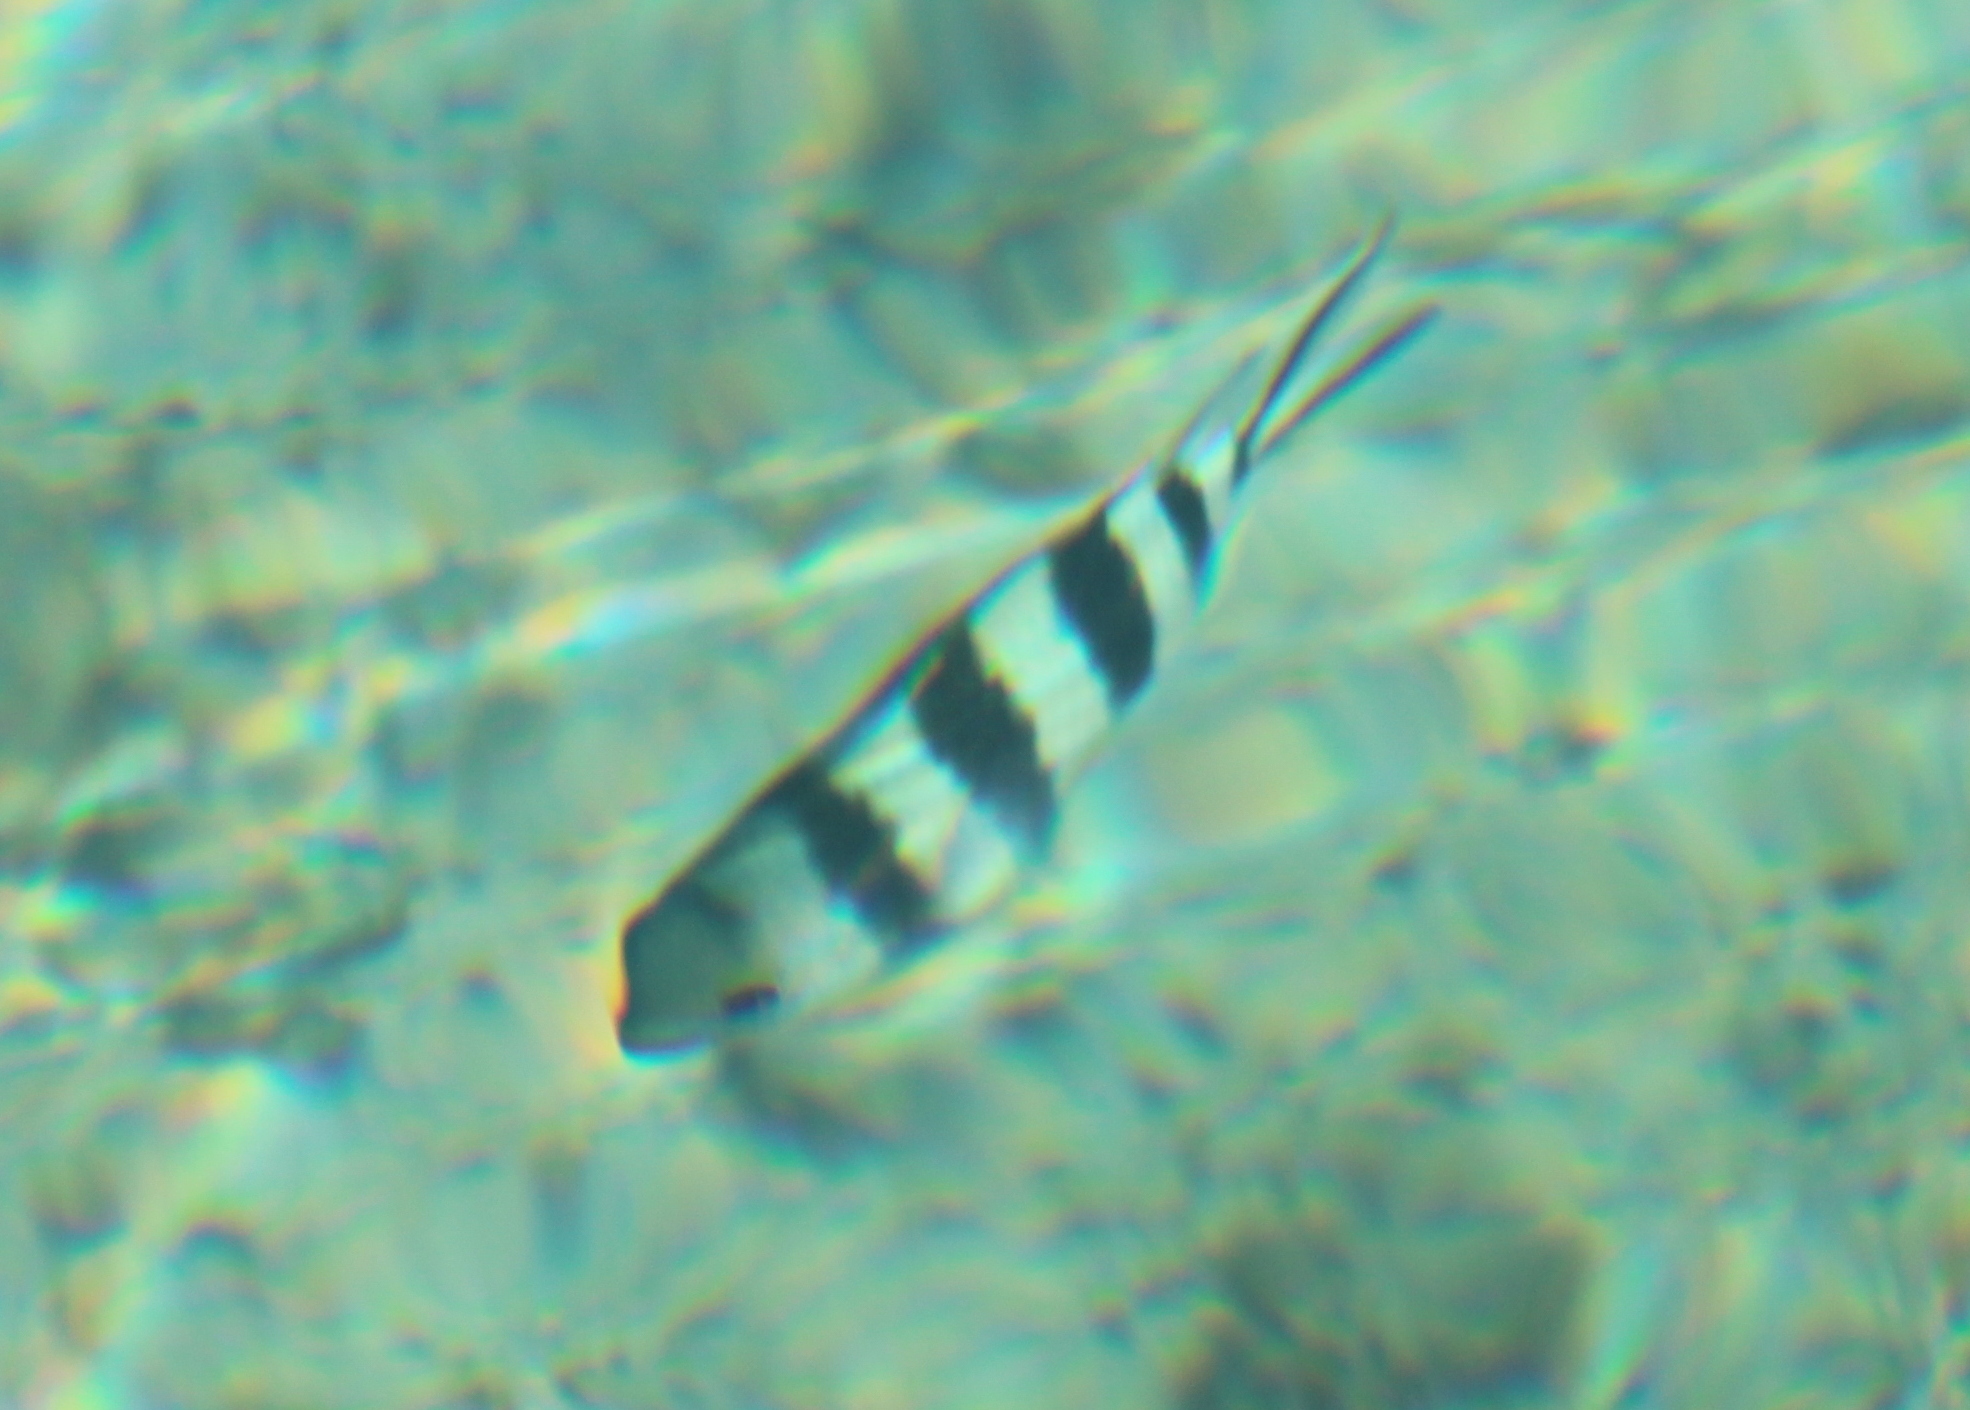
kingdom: Animalia
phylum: Chordata
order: Perciformes
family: Pomacentridae
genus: Abudefduf
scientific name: Abudefduf sexfasciatus
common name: Scissortail sergeant
